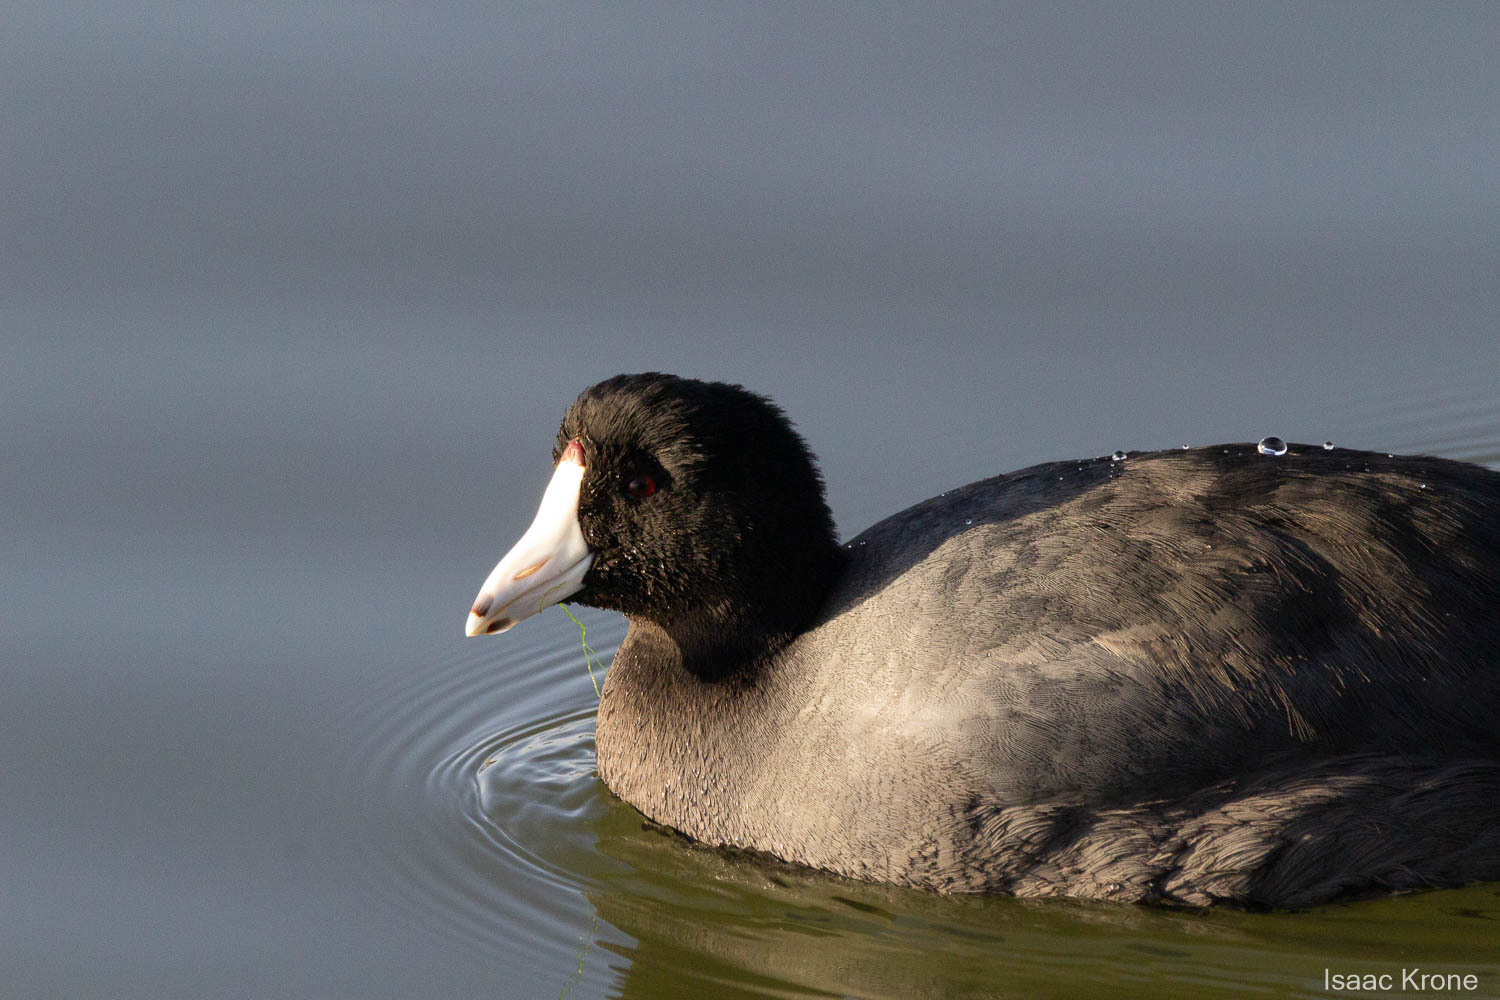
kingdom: Animalia
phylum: Chordata
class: Aves
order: Gruiformes
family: Rallidae
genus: Fulica
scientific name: Fulica americana
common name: American coot
